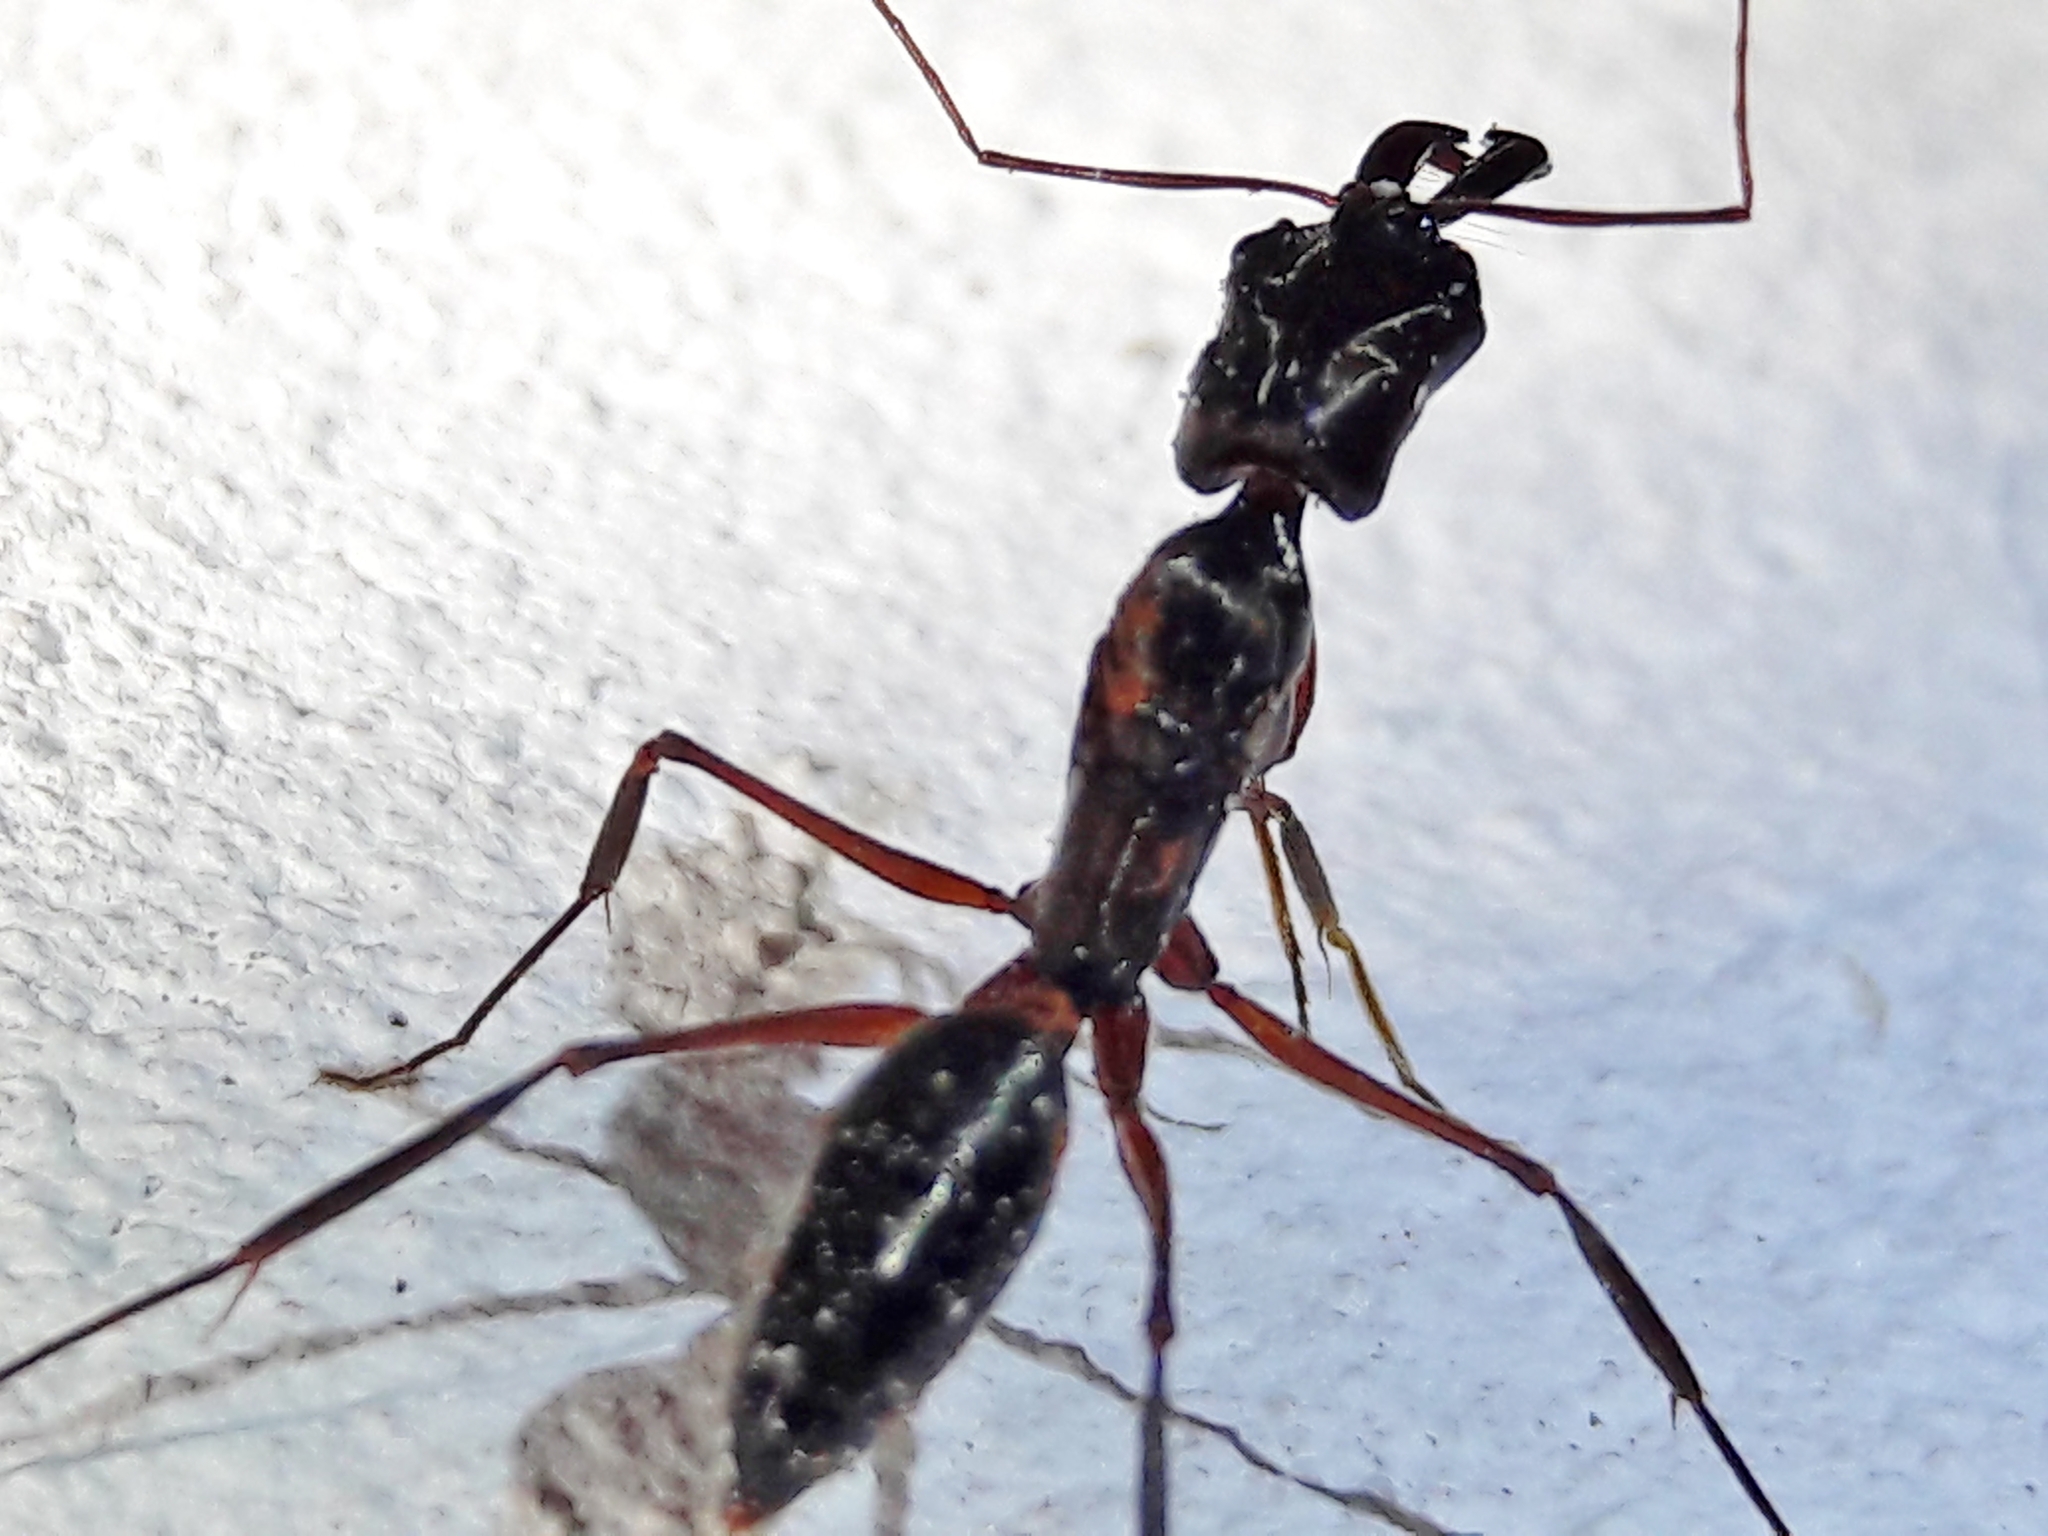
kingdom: Animalia
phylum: Arthropoda
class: Insecta
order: Hymenoptera
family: Formicidae
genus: Odontomachus
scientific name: Odontomachus chelifer
